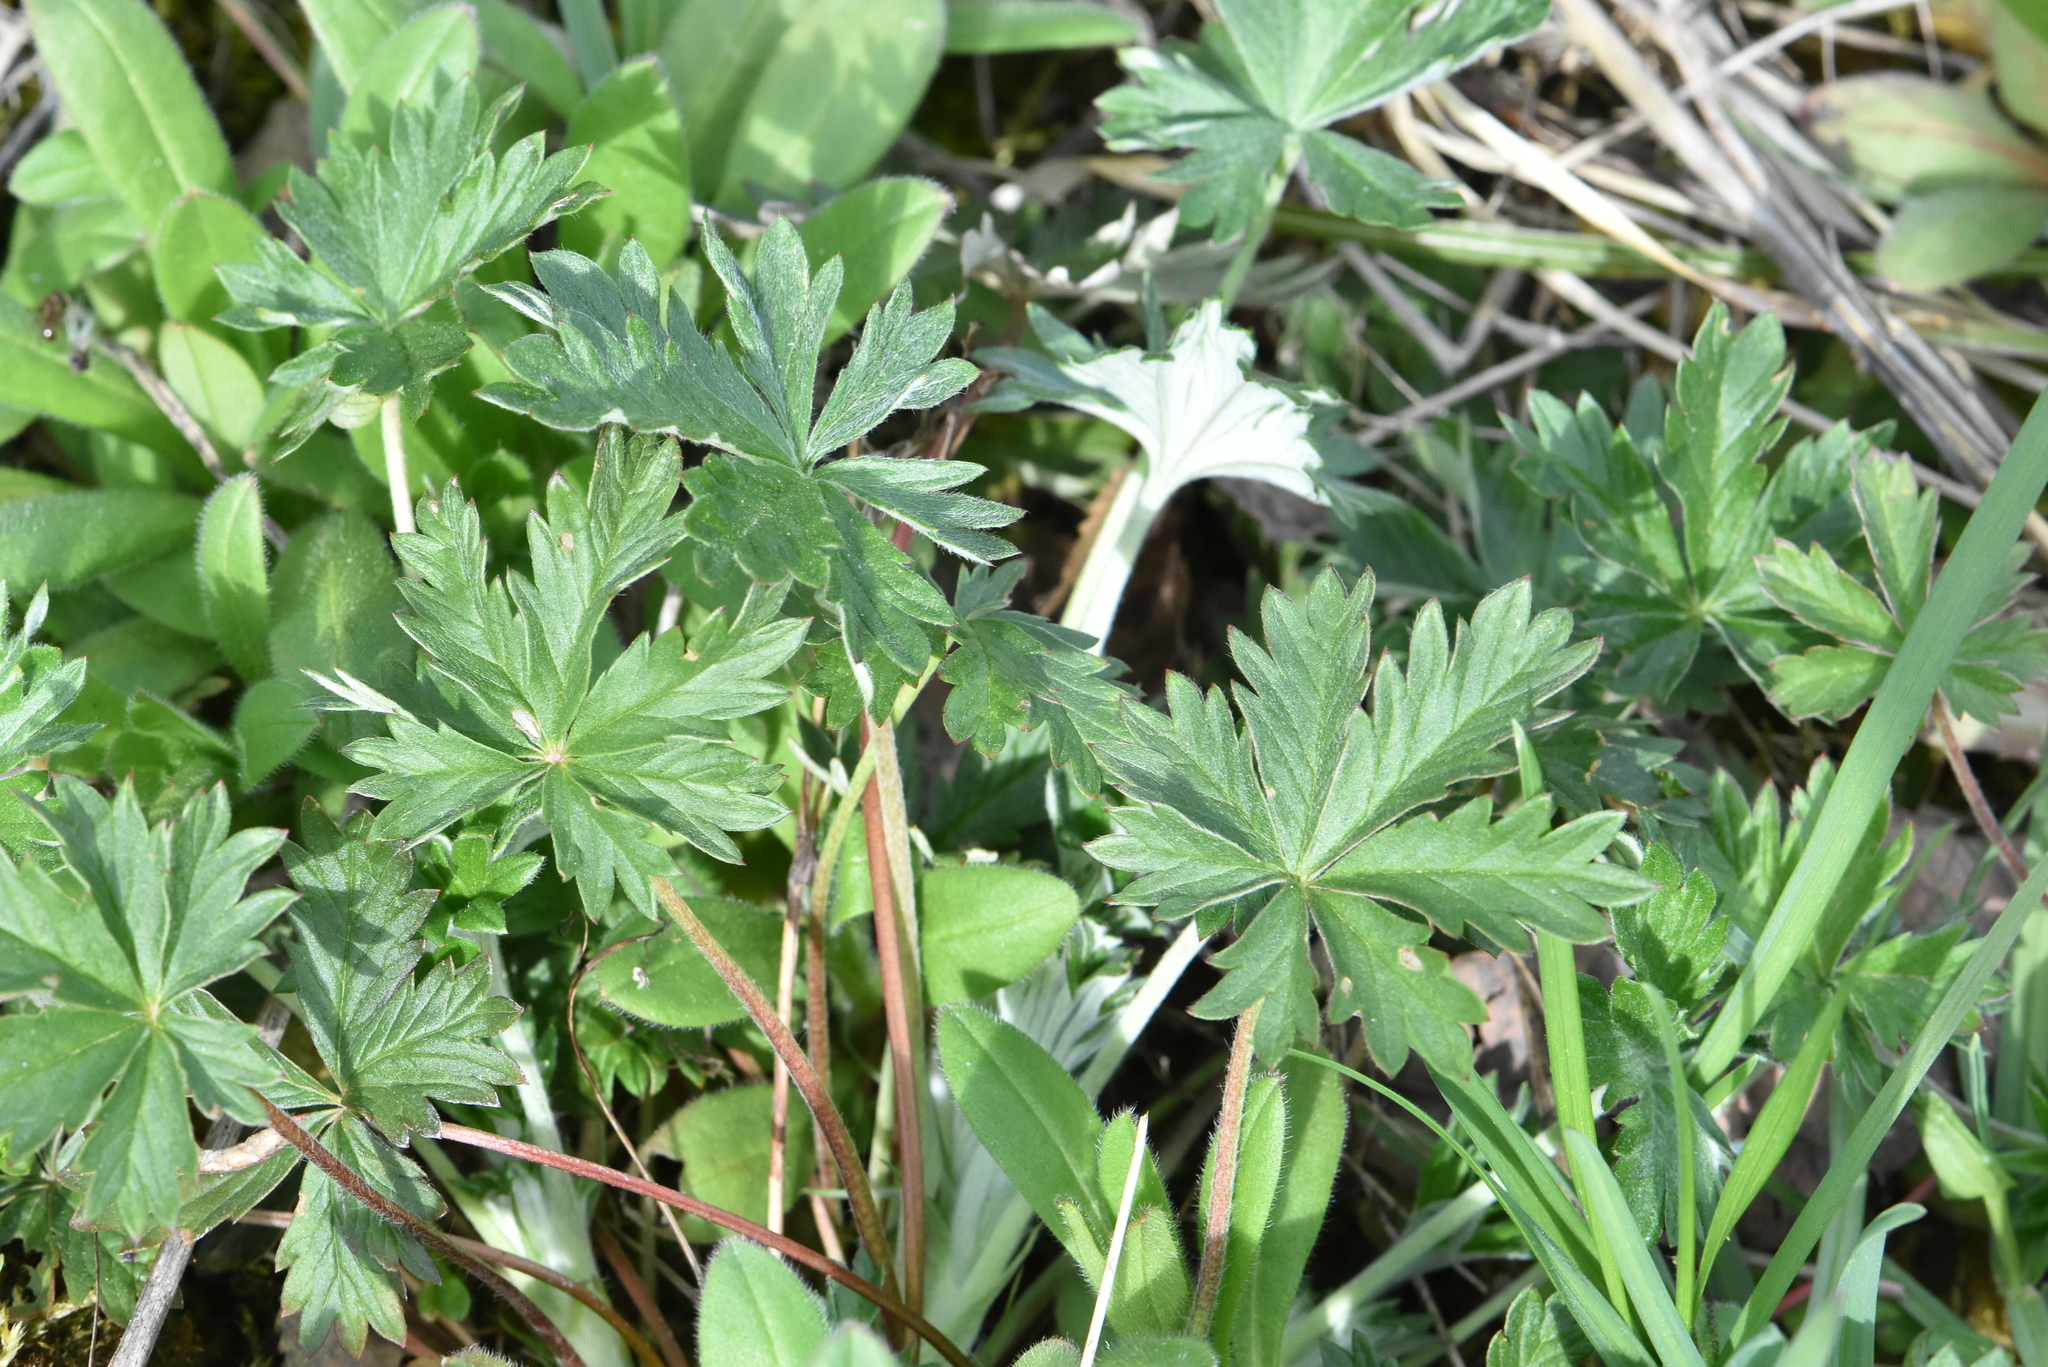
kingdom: Plantae
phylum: Tracheophyta
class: Magnoliopsida
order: Rosales
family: Rosaceae
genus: Potentilla
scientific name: Potentilla argentea
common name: Hoary cinquefoil
